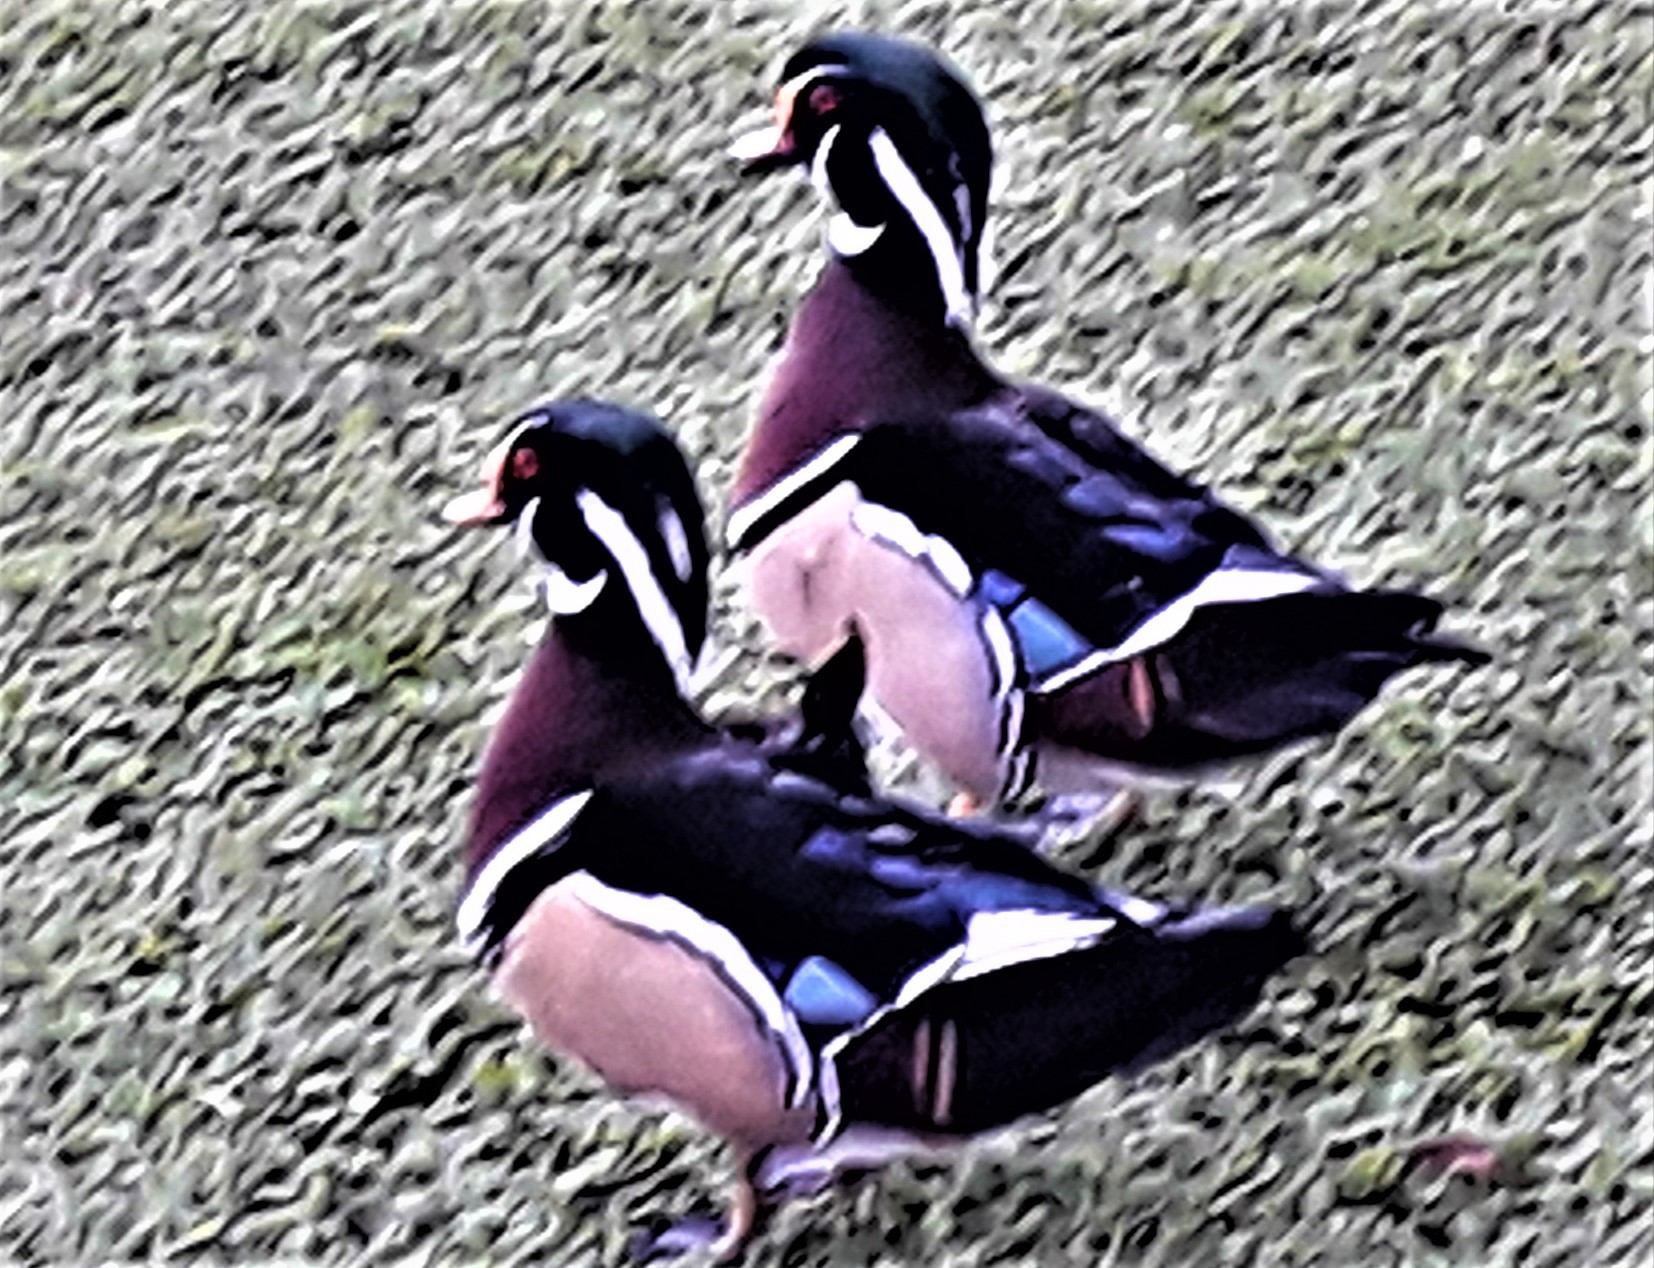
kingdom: Animalia
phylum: Chordata
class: Aves
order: Anseriformes
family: Anatidae
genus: Aix
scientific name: Aix sponsa
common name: Wood duck
